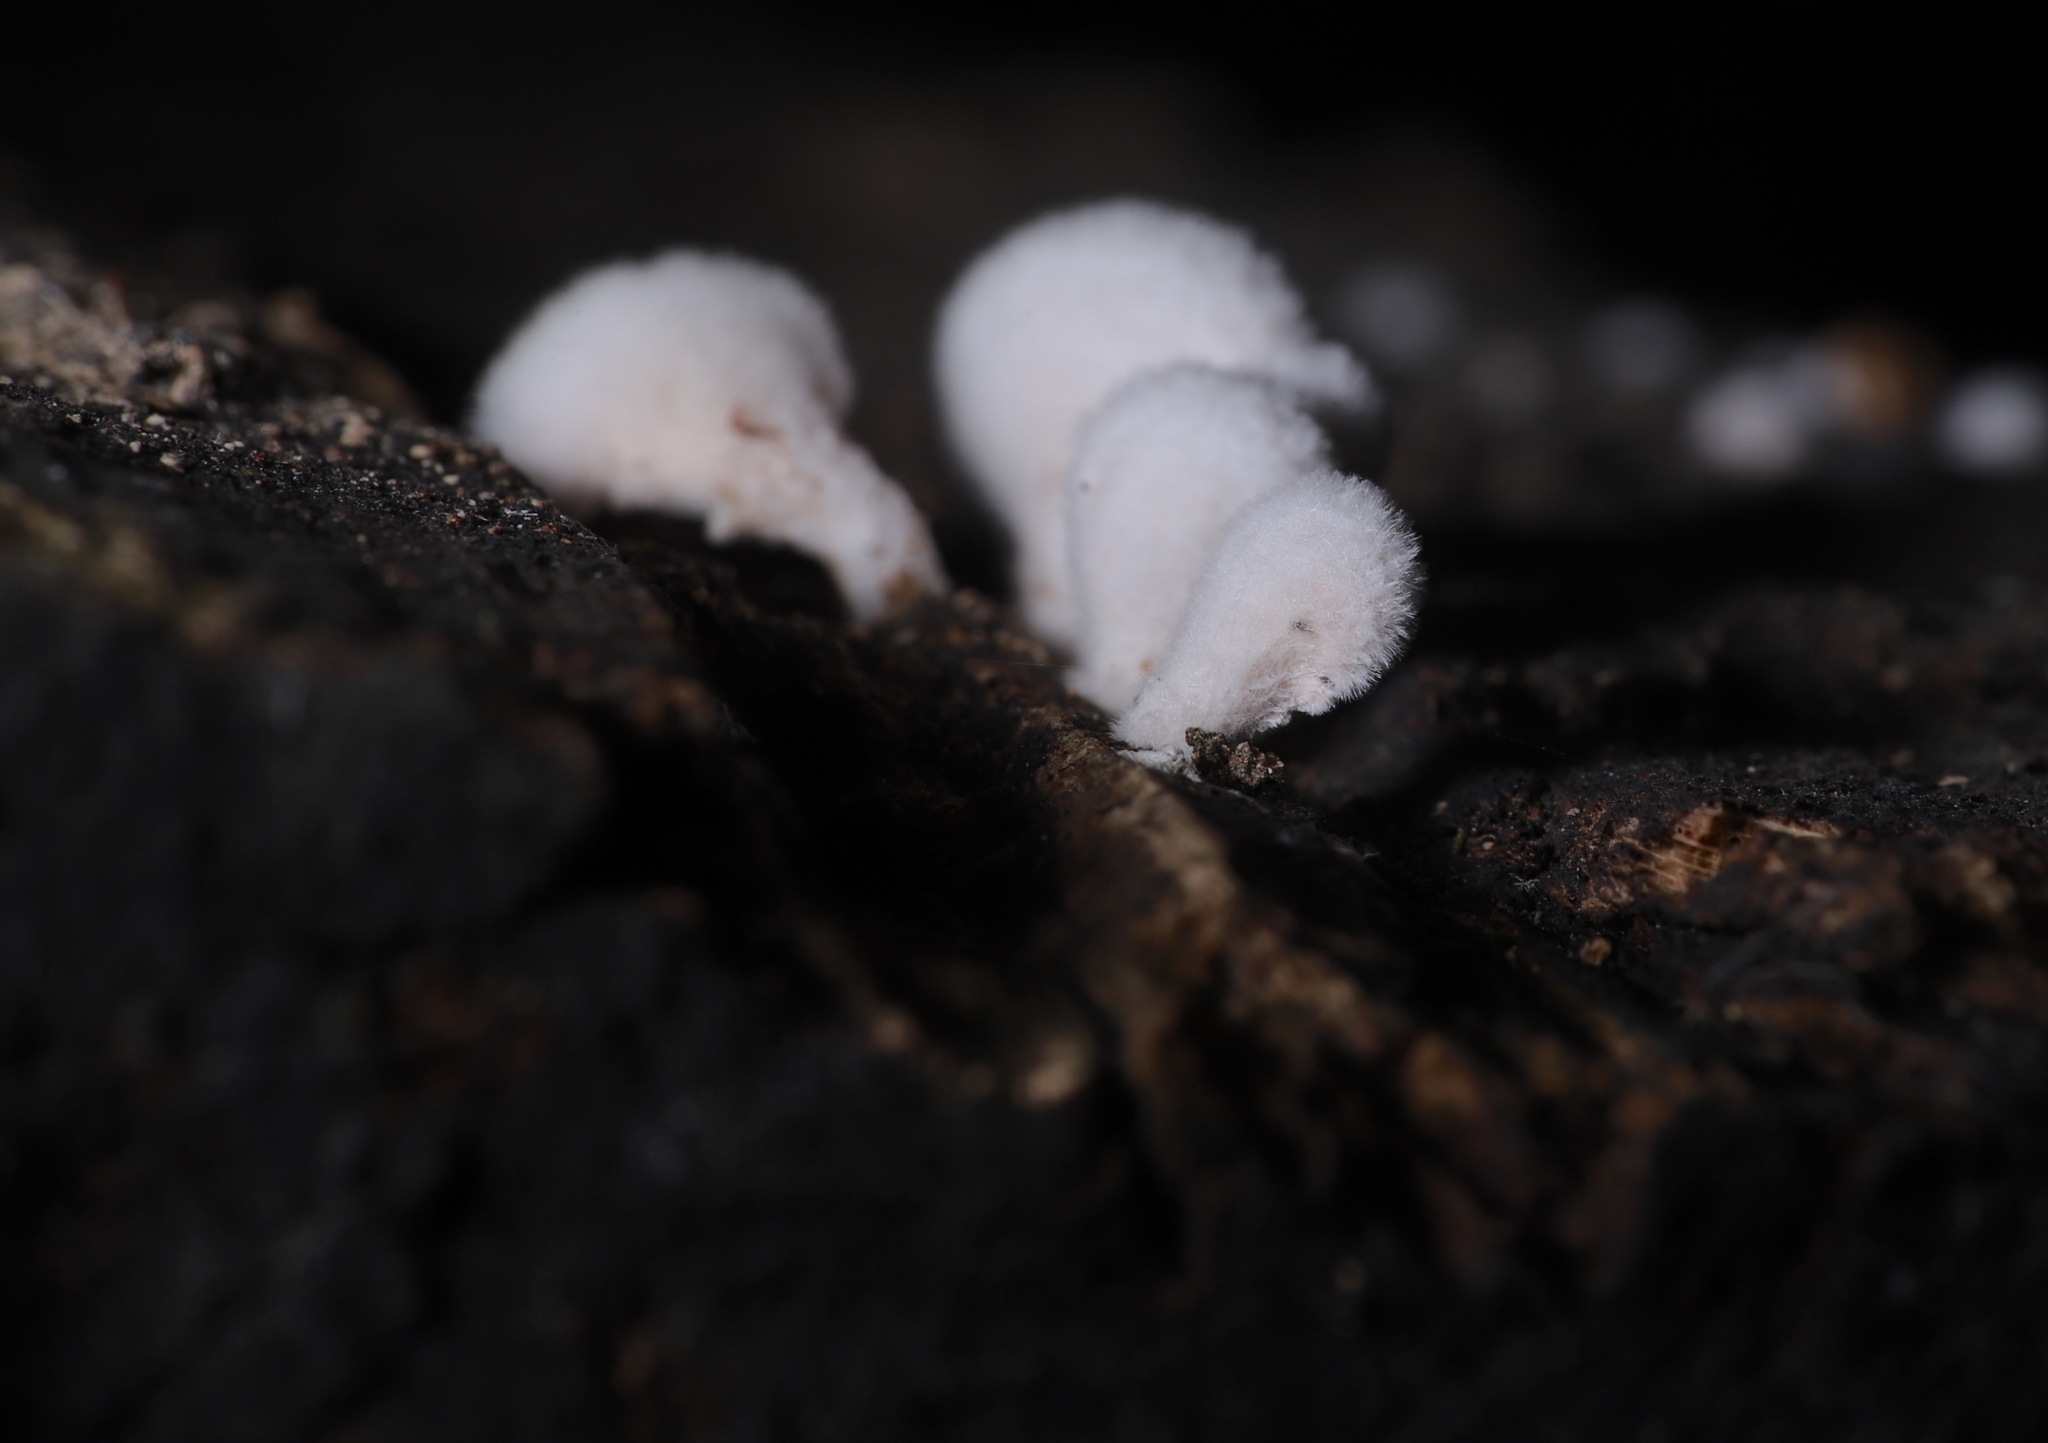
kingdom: Fungi
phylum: Basidiomycota
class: Agaricomycetes
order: Agaricales
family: Schizophyllaceae
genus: Schizophyllum
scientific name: Schizophyllum commune
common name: Common porecrust
